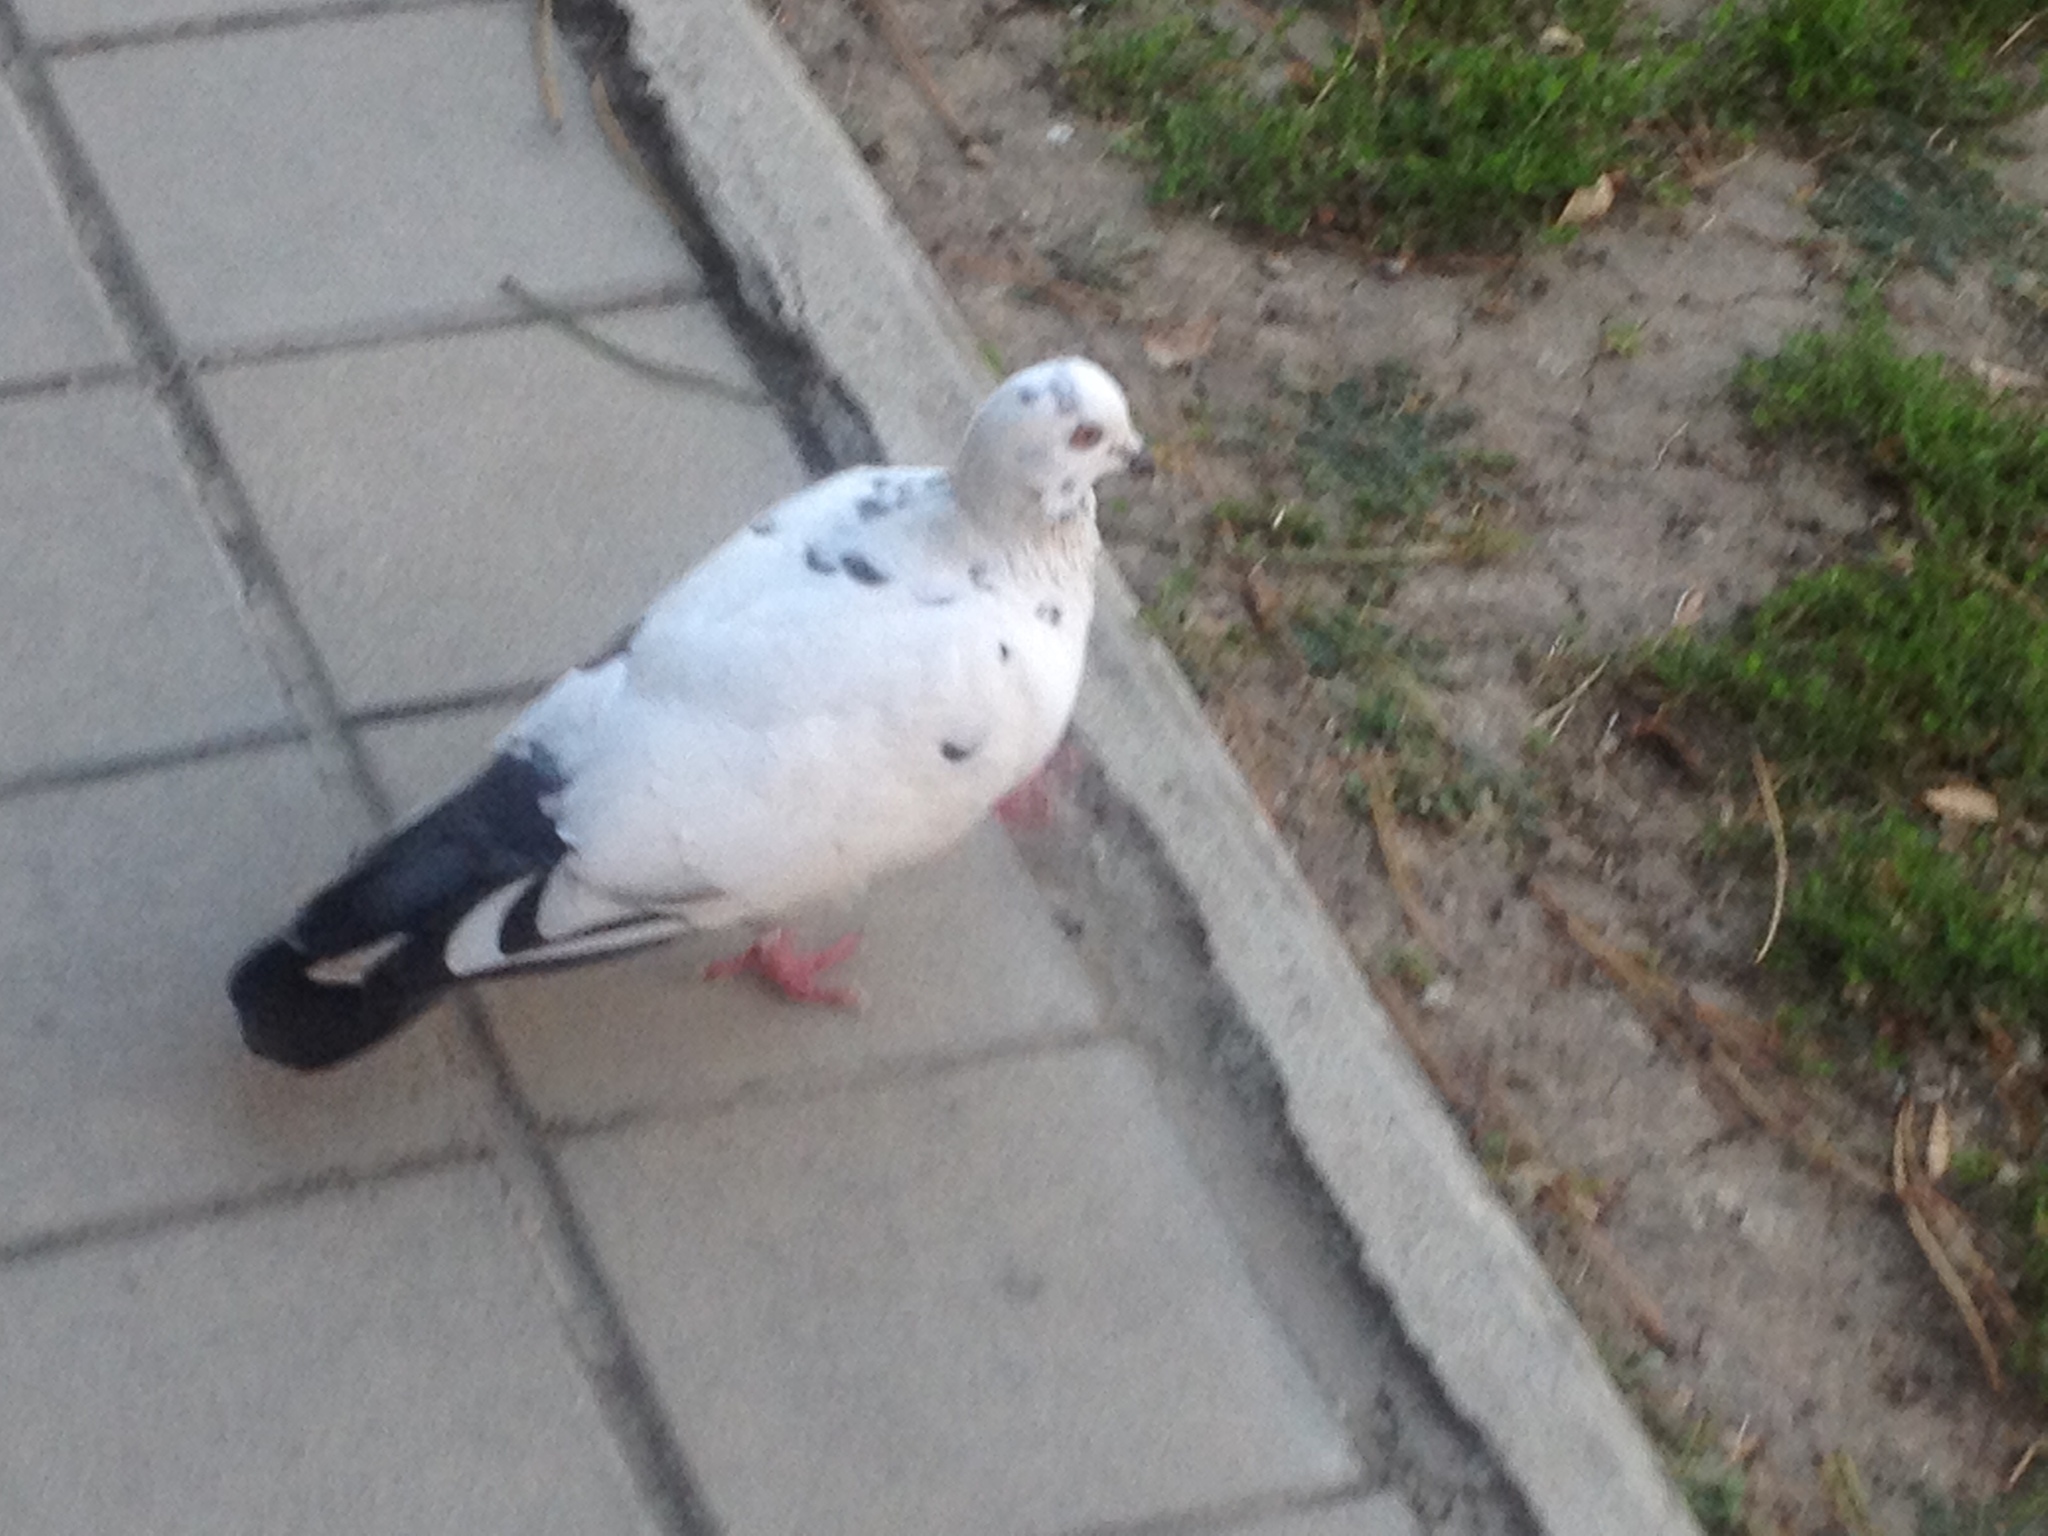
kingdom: Animalia
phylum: Chordata
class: Aves
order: Columbiformes
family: Columbidae
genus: Columba
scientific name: Columba livia
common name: Rock pigeon
